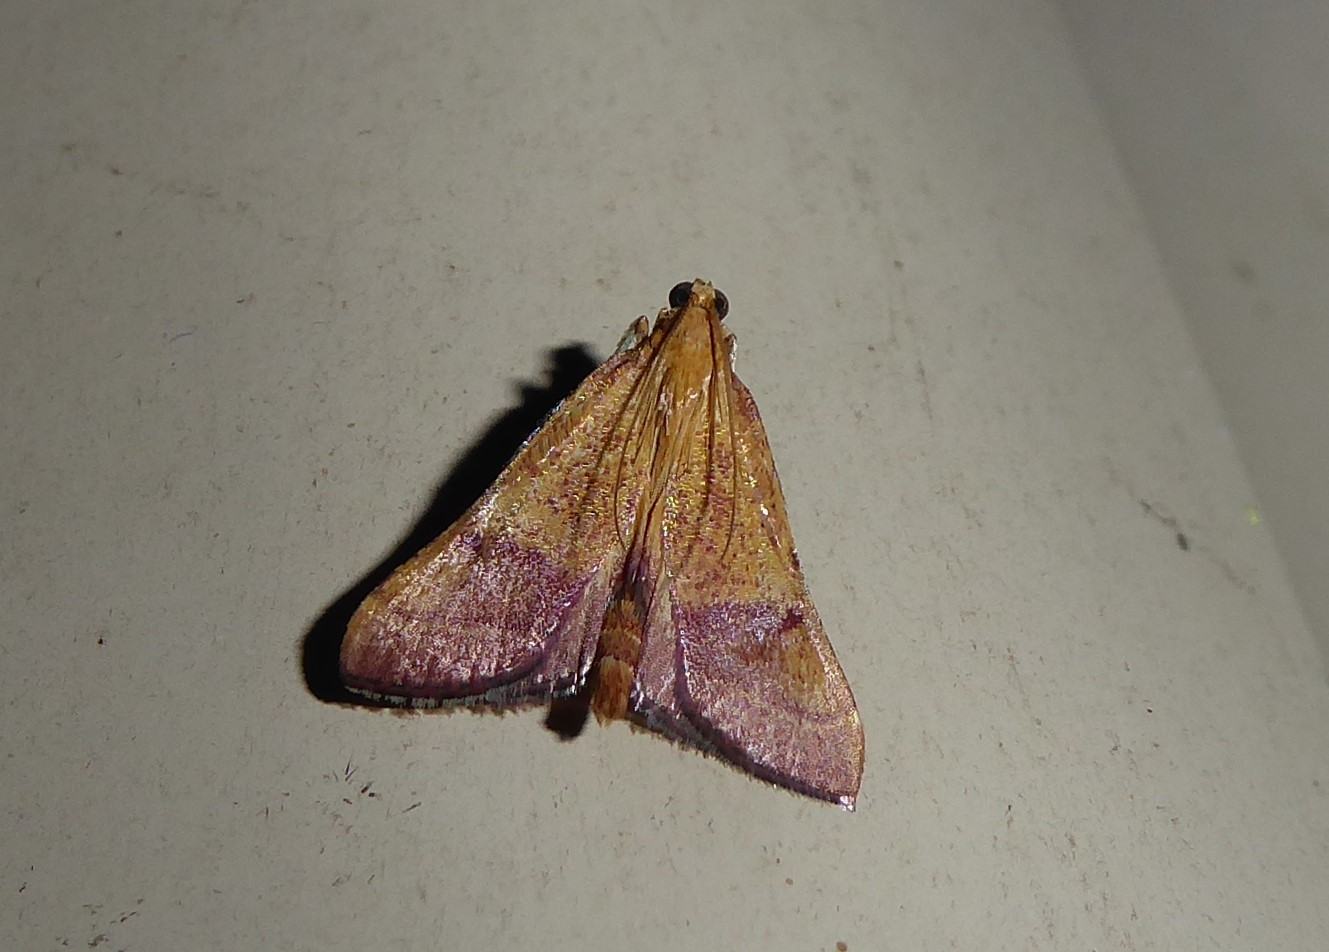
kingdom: Animalia
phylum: Arthropoda
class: Insecta
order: Lepidoptera
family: Pyralidae
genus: Endotricha
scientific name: Endotricha pyrosalis
